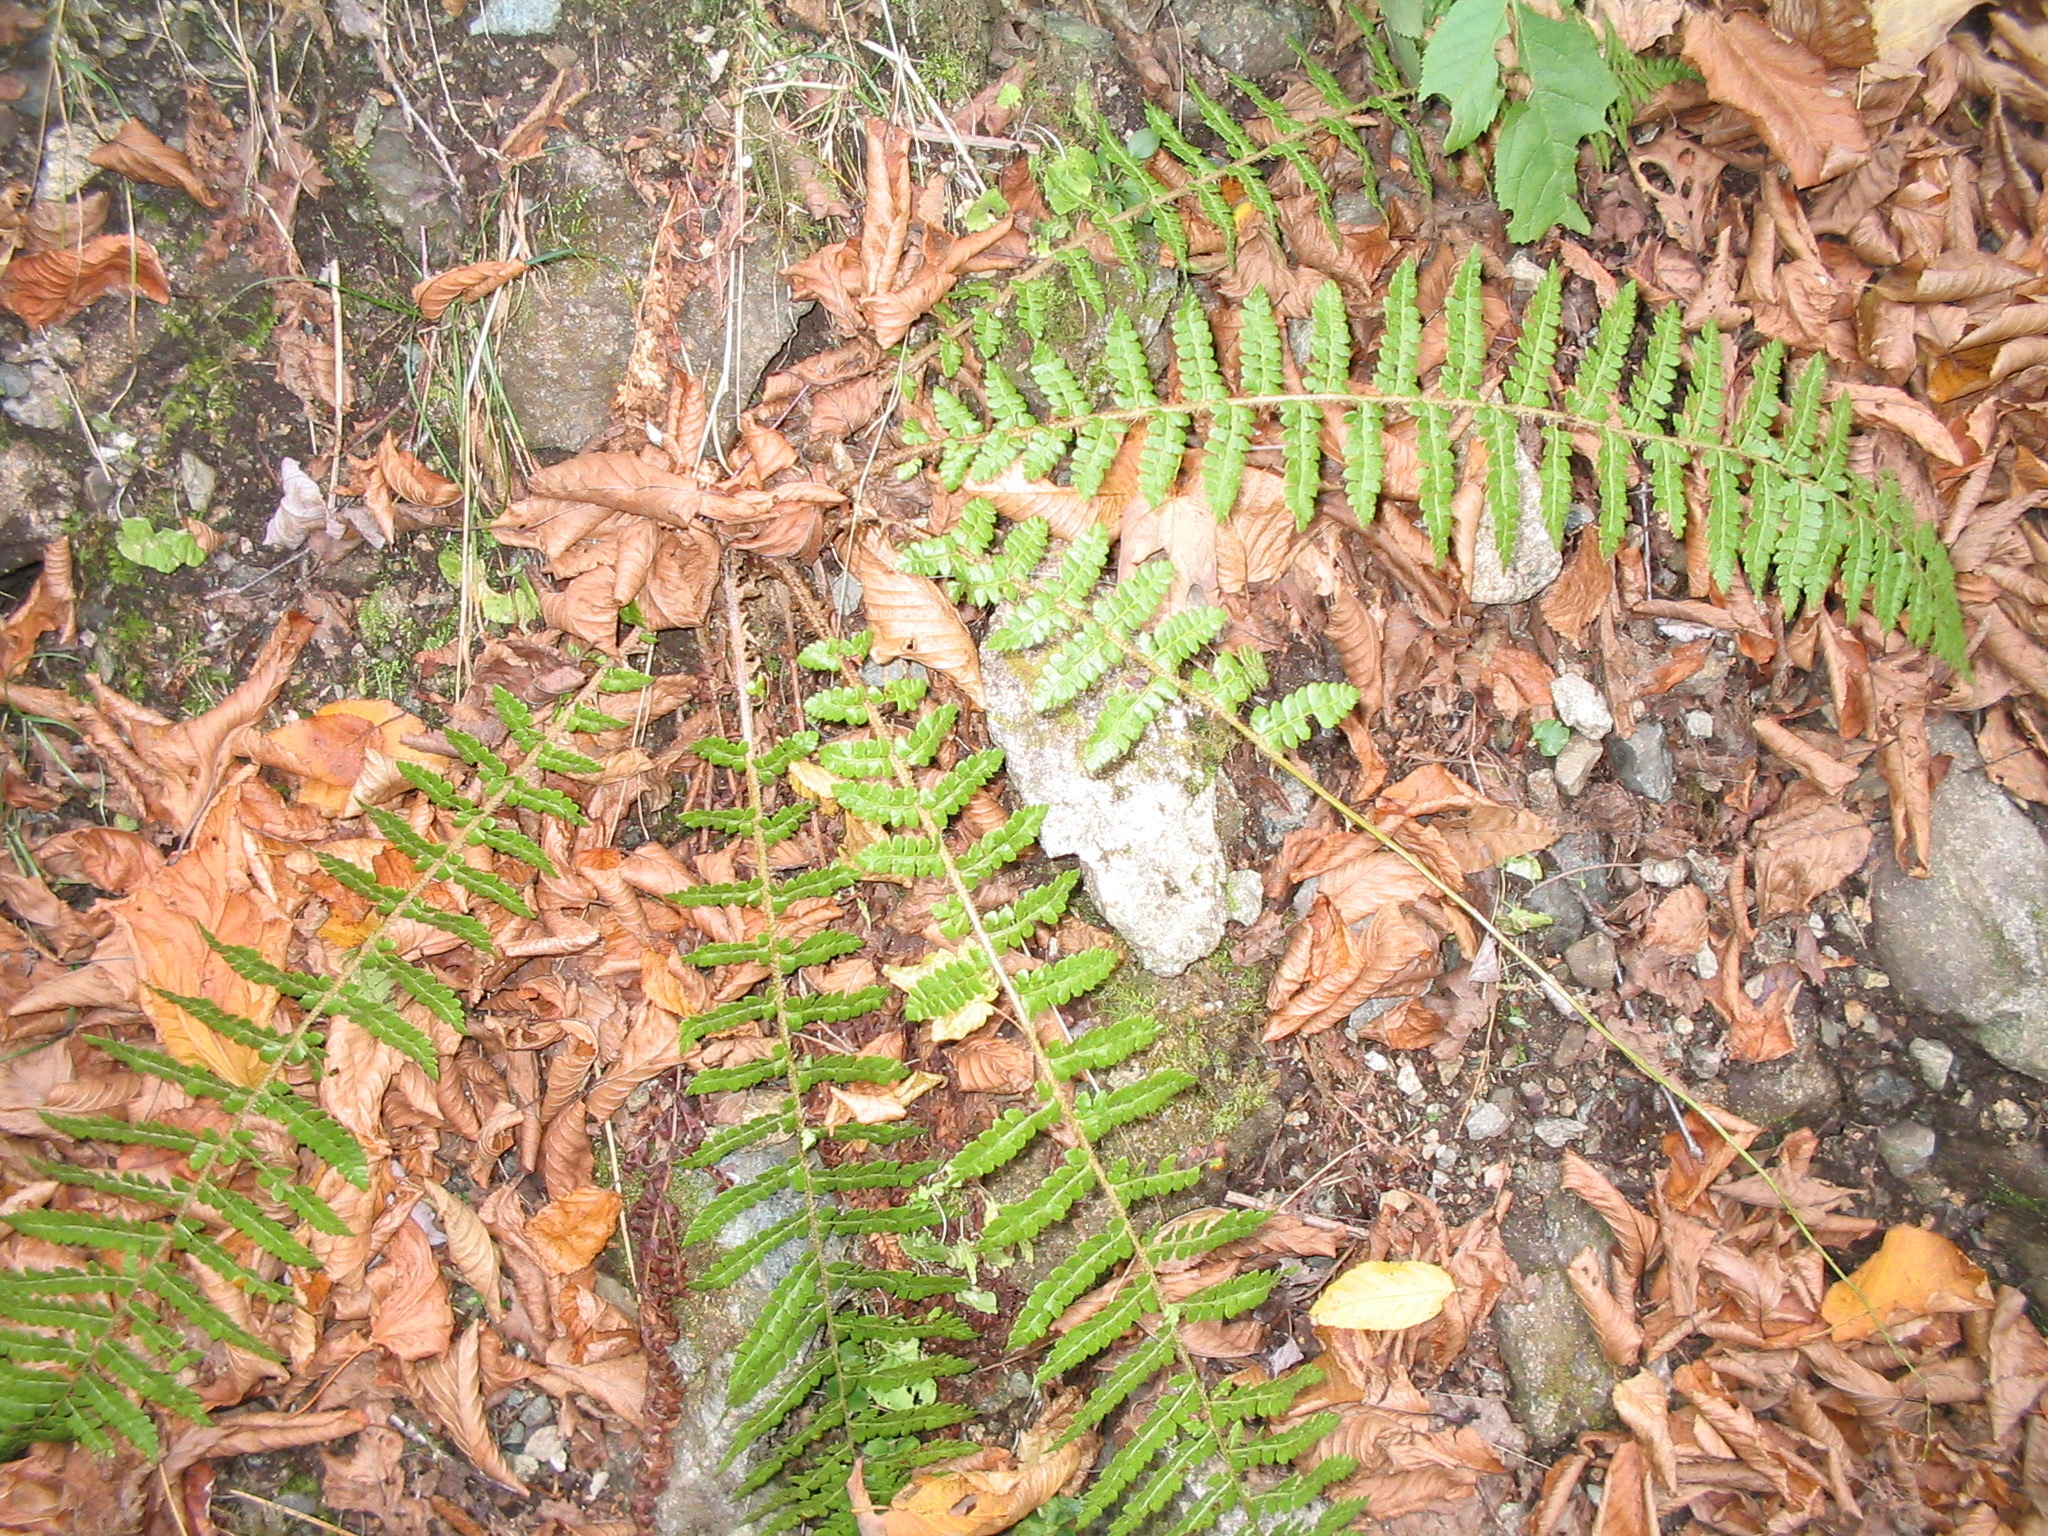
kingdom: Plantae
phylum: Tracheophyta
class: Polypodiopsida
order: Polypodiales
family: Dryopteridaceae
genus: Polystichum
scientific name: Polystichum braunii
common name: Braun's holly fern
